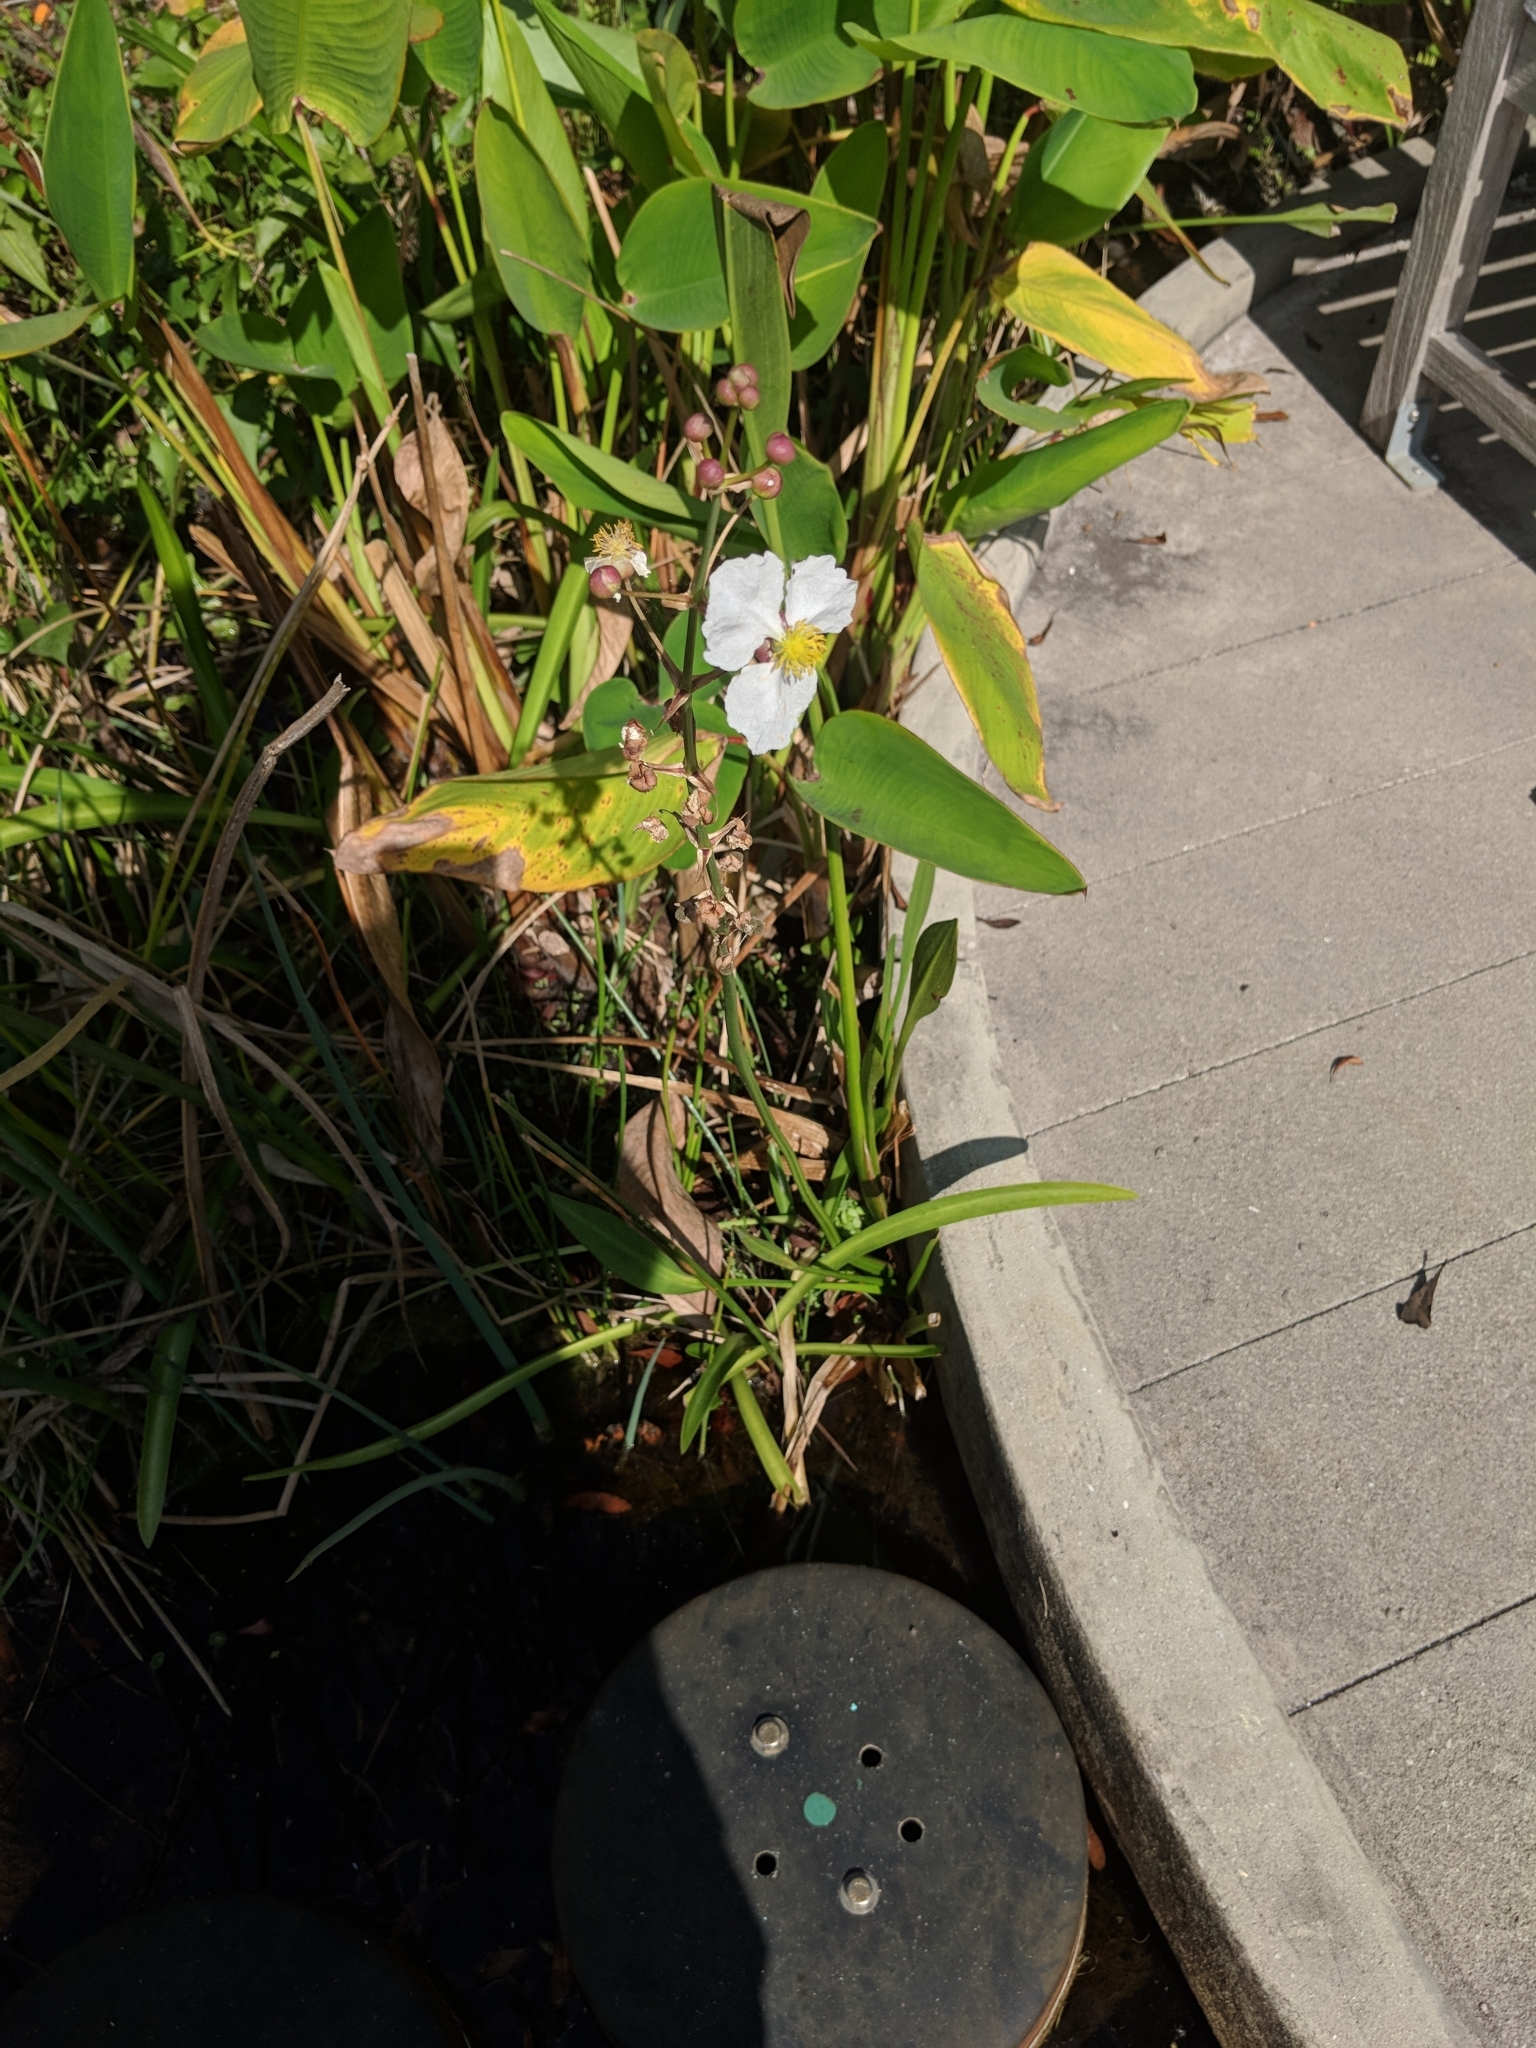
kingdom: Plantae
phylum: Tracheophyta
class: Liliopsida
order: Alismatales
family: Alismataceae
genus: Sagittaria
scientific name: Sagittaria lancifolia
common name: Lance-leaf arrowhead
